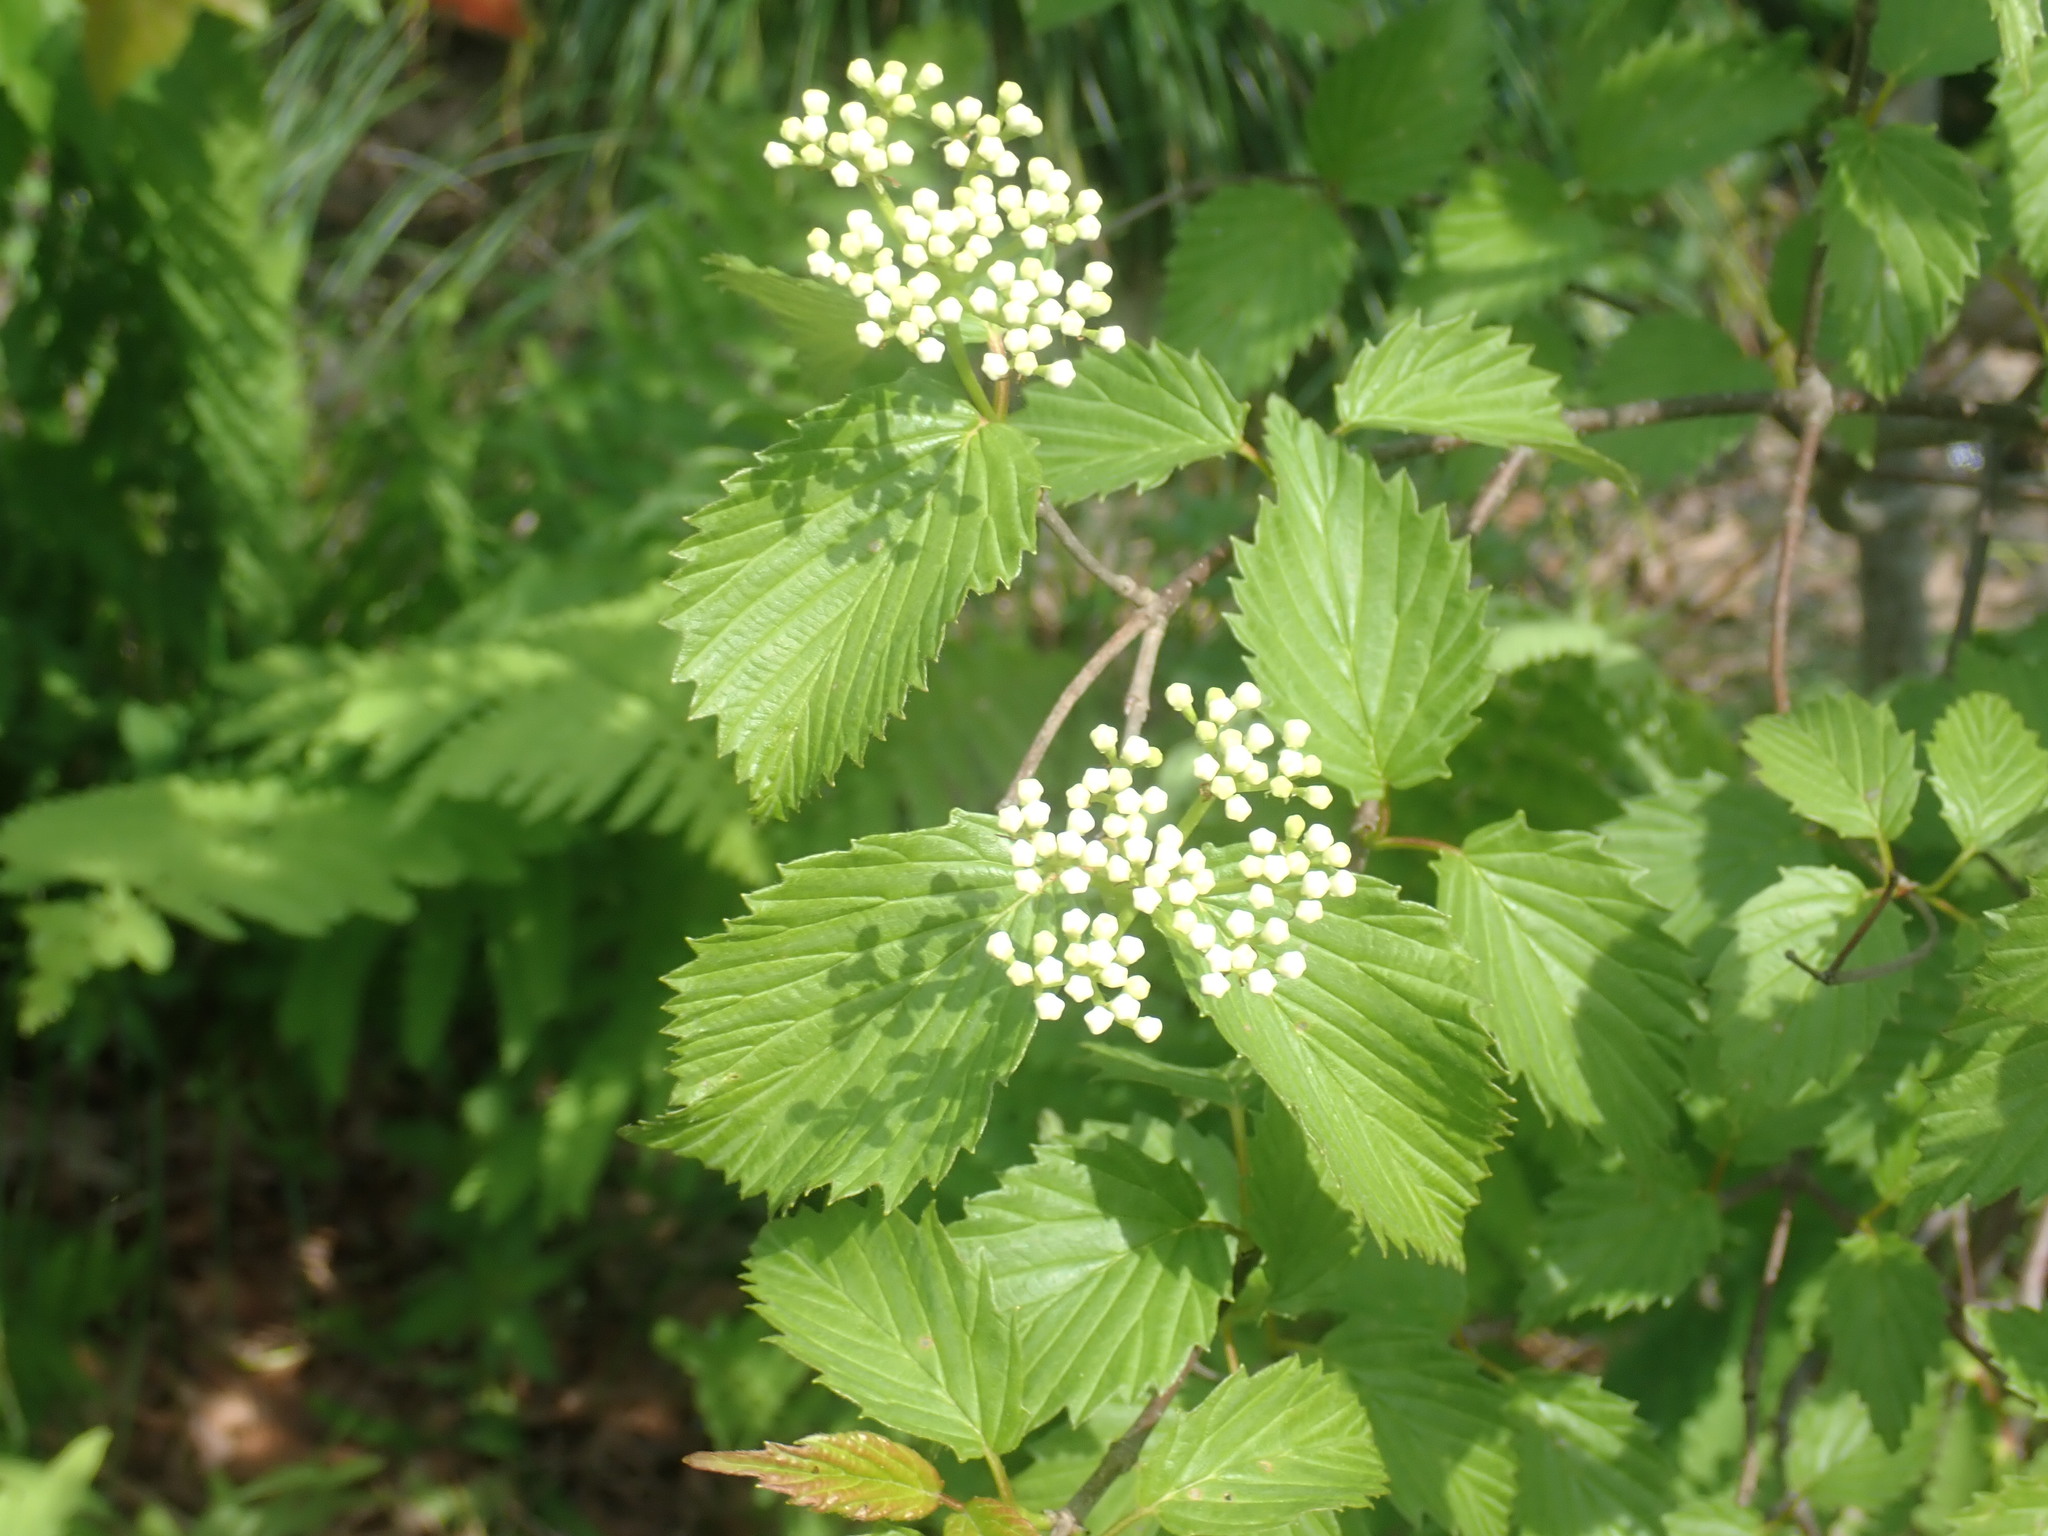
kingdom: Plantae
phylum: Tracheophyta
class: Magnoliopsida
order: Dipsacales
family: Viburnaceae
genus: Viburnum
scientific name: Viburnum recognitum
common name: Northern arrow-wood
